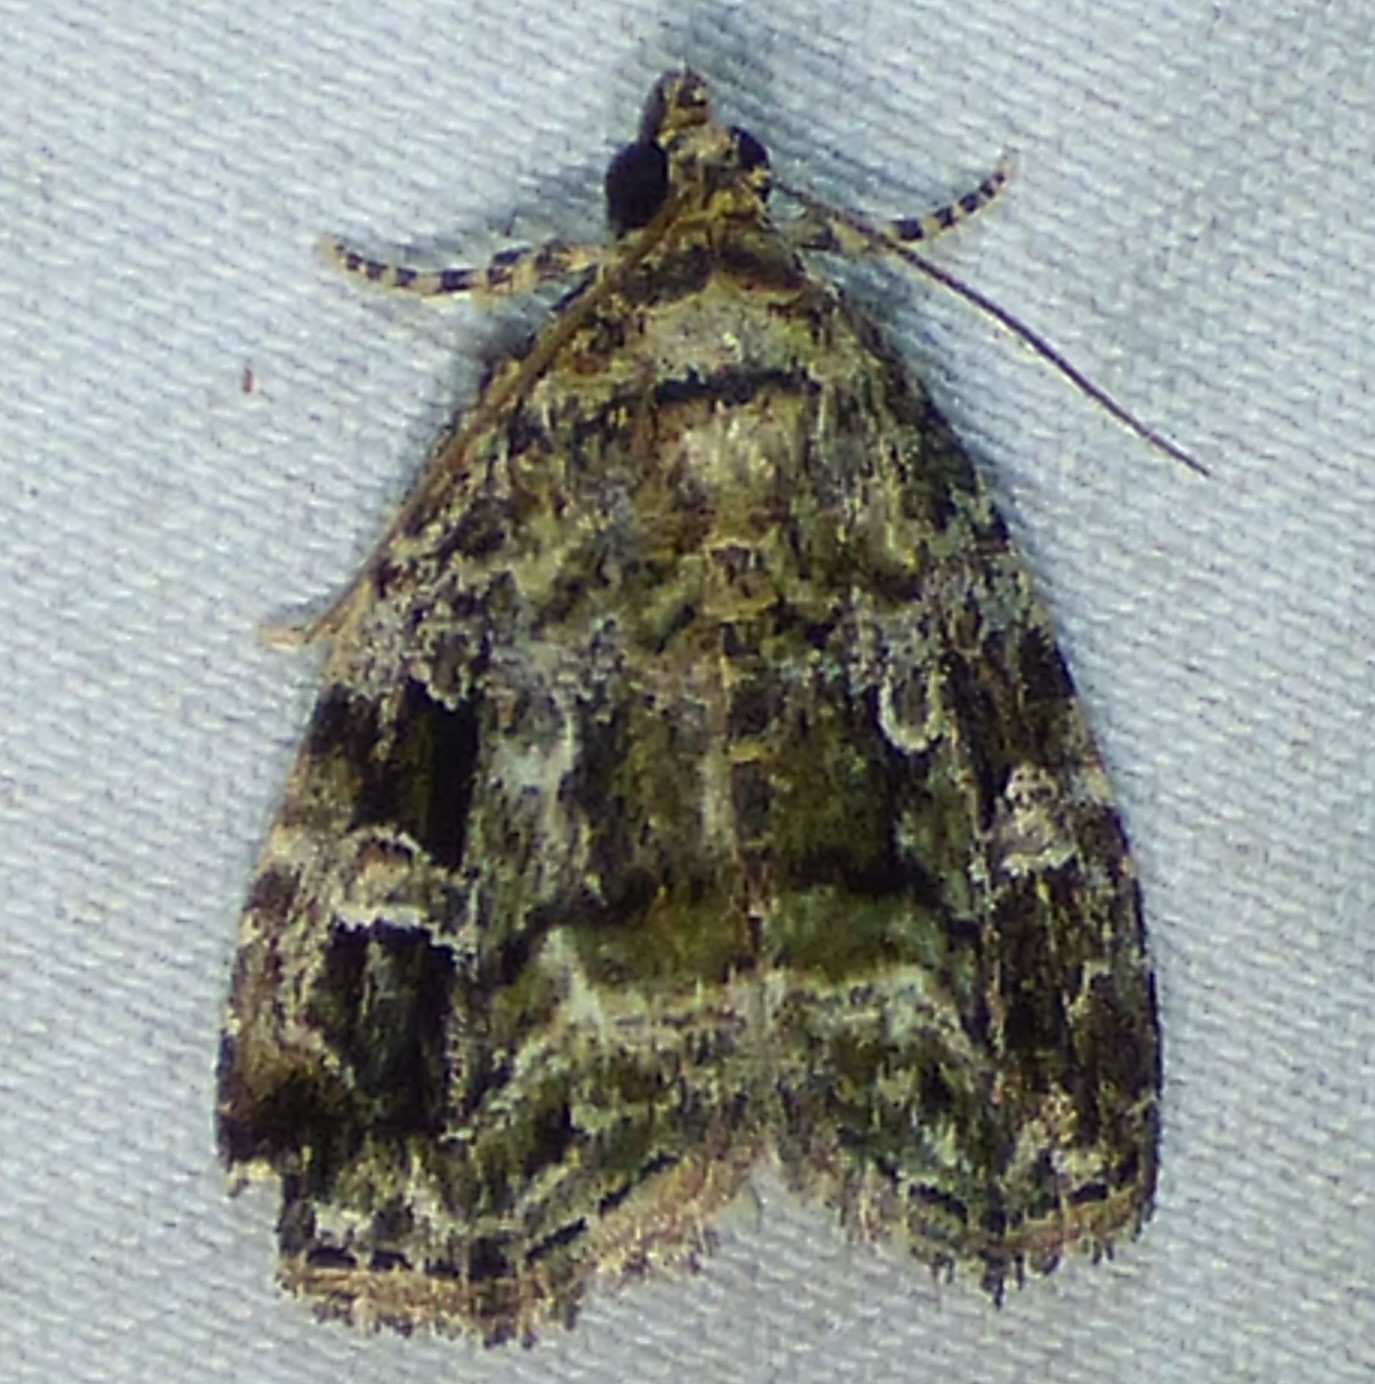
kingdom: Animalia
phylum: Arthropoda
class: Insecta
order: Lepidoptera
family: Noctuidae
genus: Protodeltote
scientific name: Protodeltote muscosula
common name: Large mossy glyph
